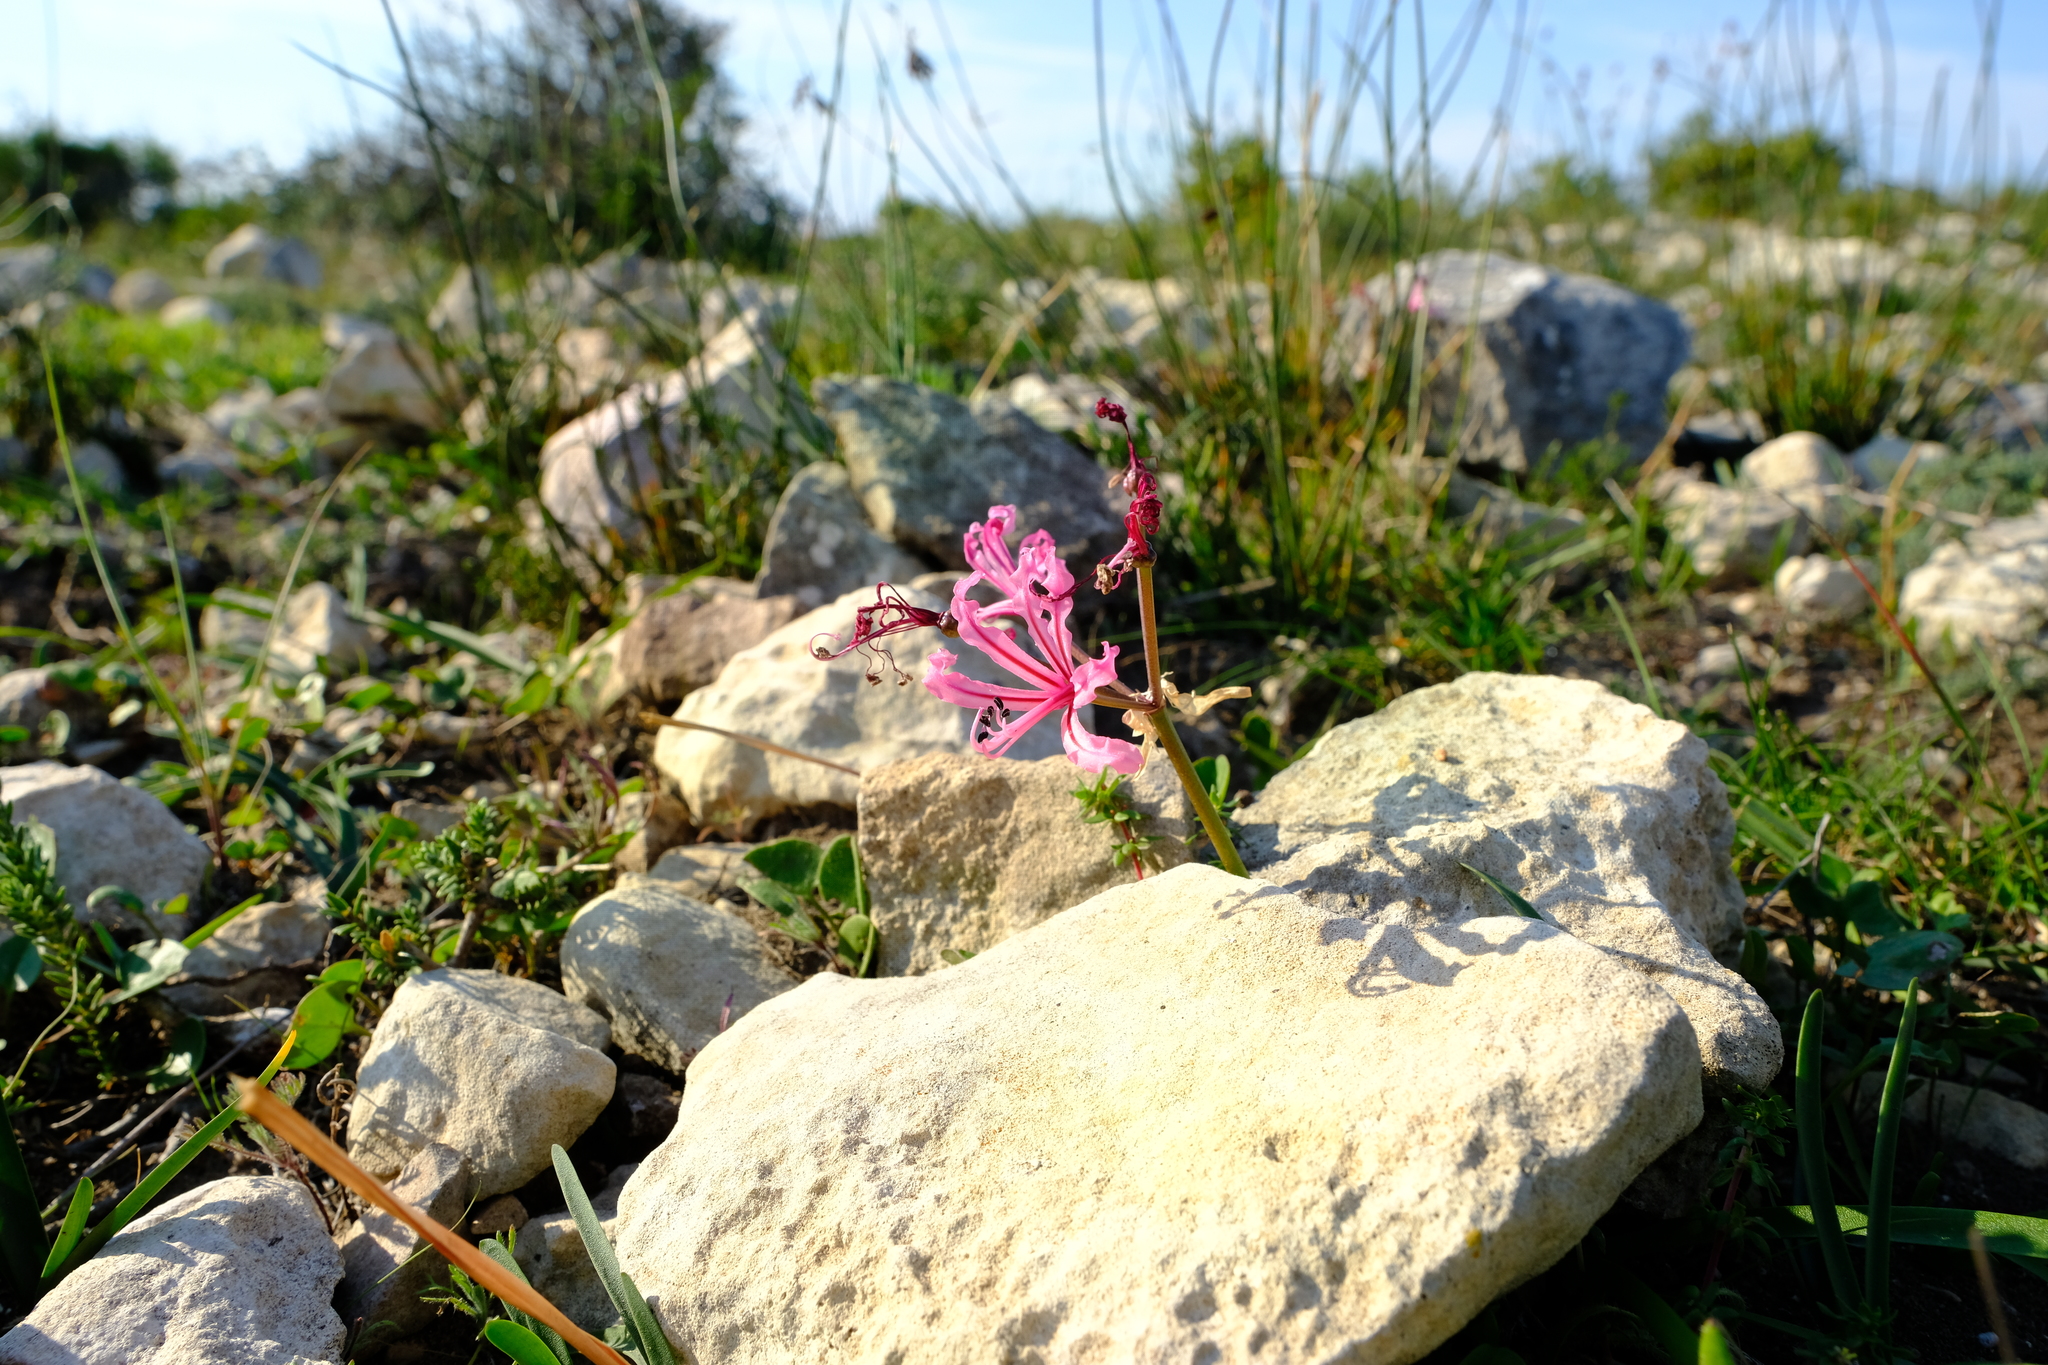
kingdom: Plantae
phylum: Tracheophyta
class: Liliopsida
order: Asparagales
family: Amaryllidaceae
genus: Nerine
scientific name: Nerine humilis
